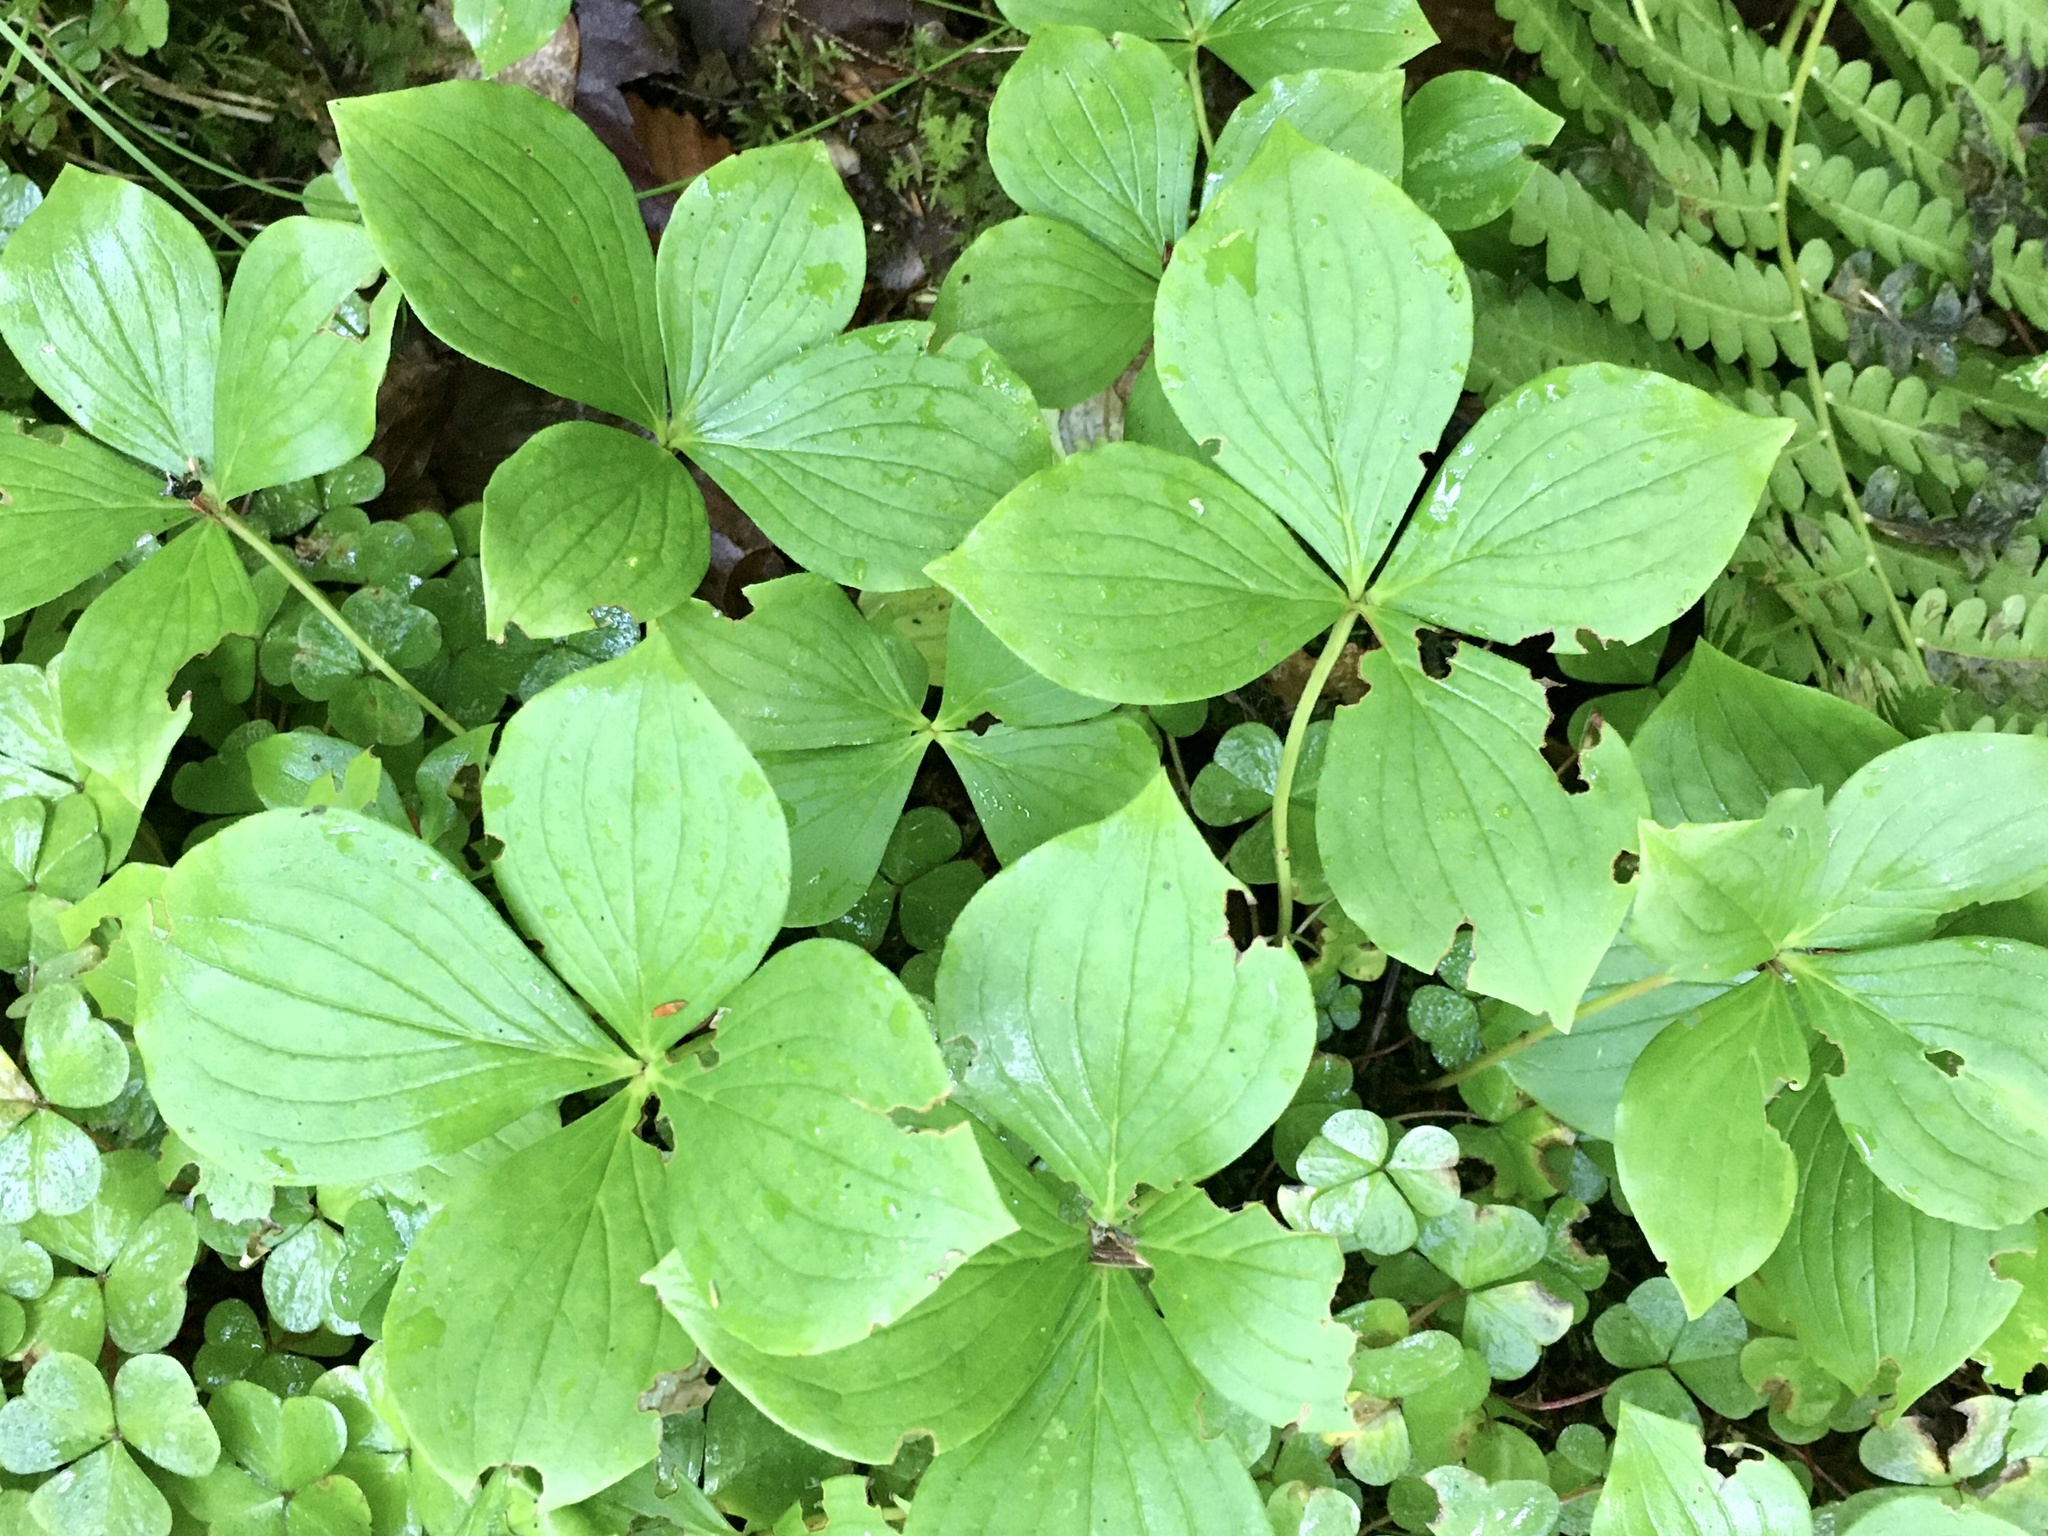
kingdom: Plantae
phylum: Tracheophyta
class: Magnoliopsida
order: Cornales
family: Cornaceae
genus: Cornus
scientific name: Cornus canadensis
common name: Creeping dogwood
